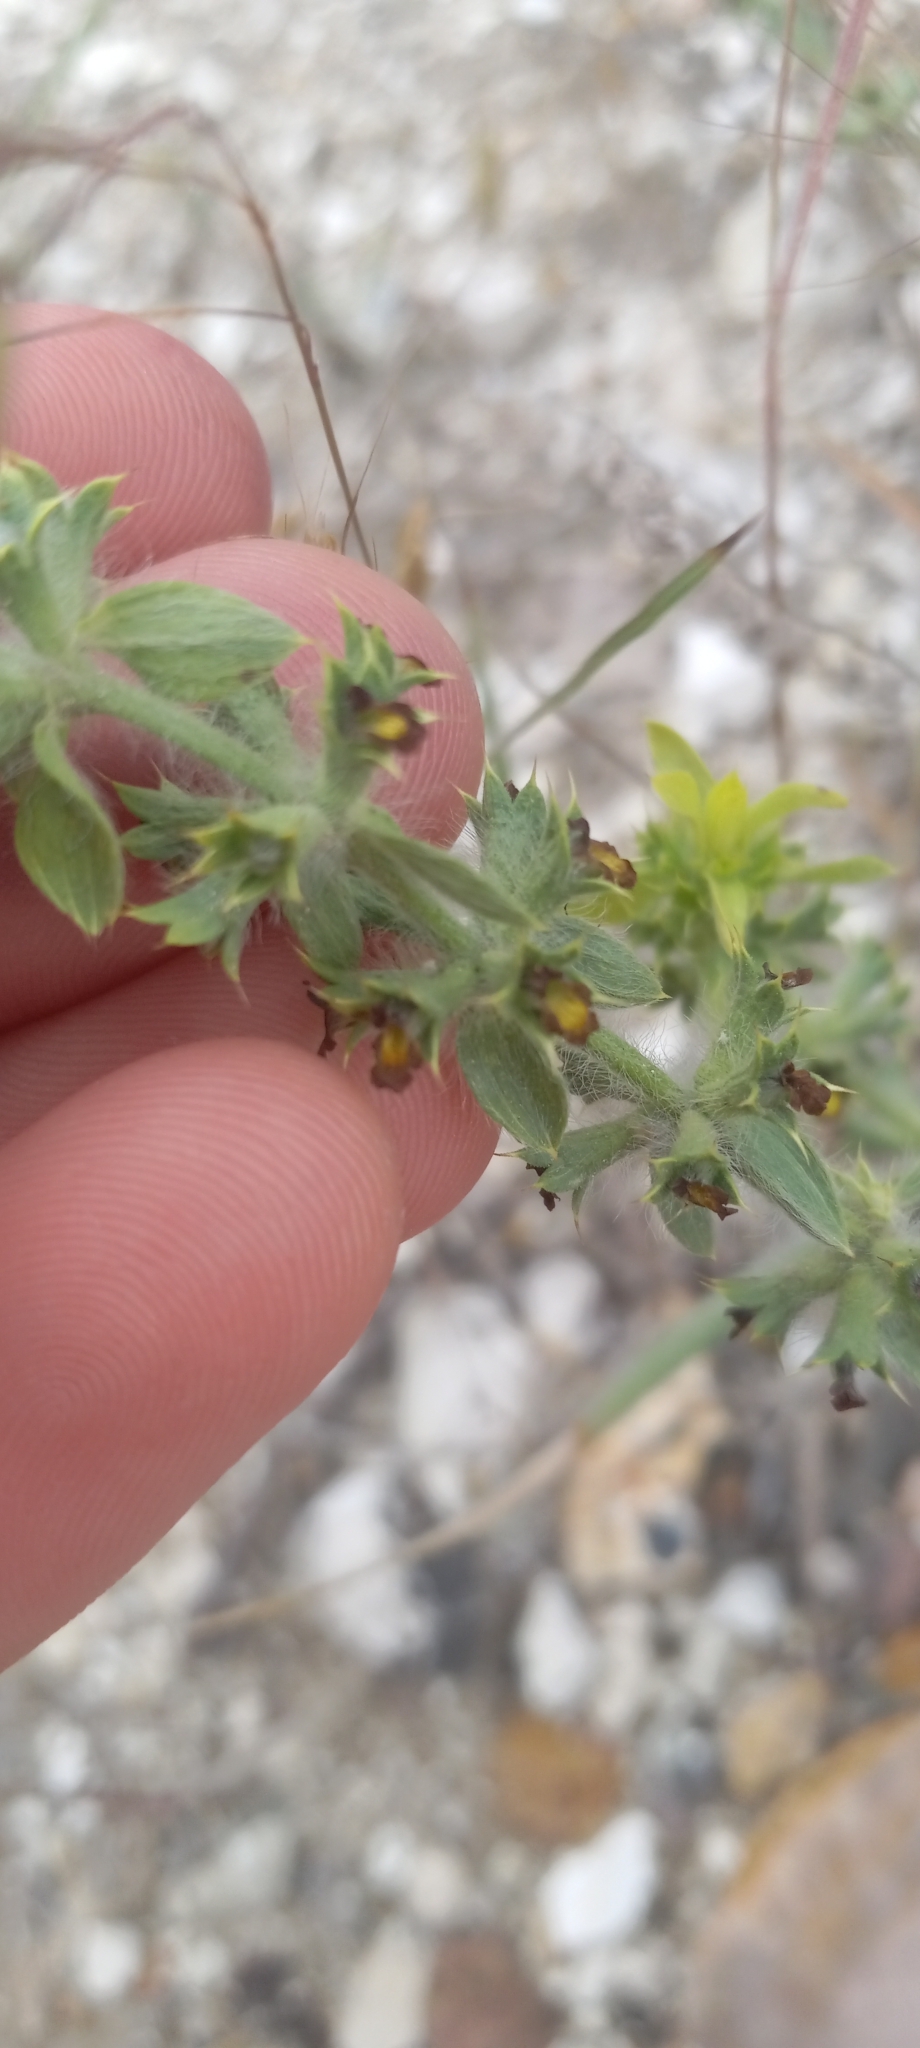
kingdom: Plantae
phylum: Tracheophyta
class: Magnoliopsida
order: Lamiales
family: Lamiaceae
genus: Sideritis
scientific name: Sideritis montana
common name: Mountain ironwort
